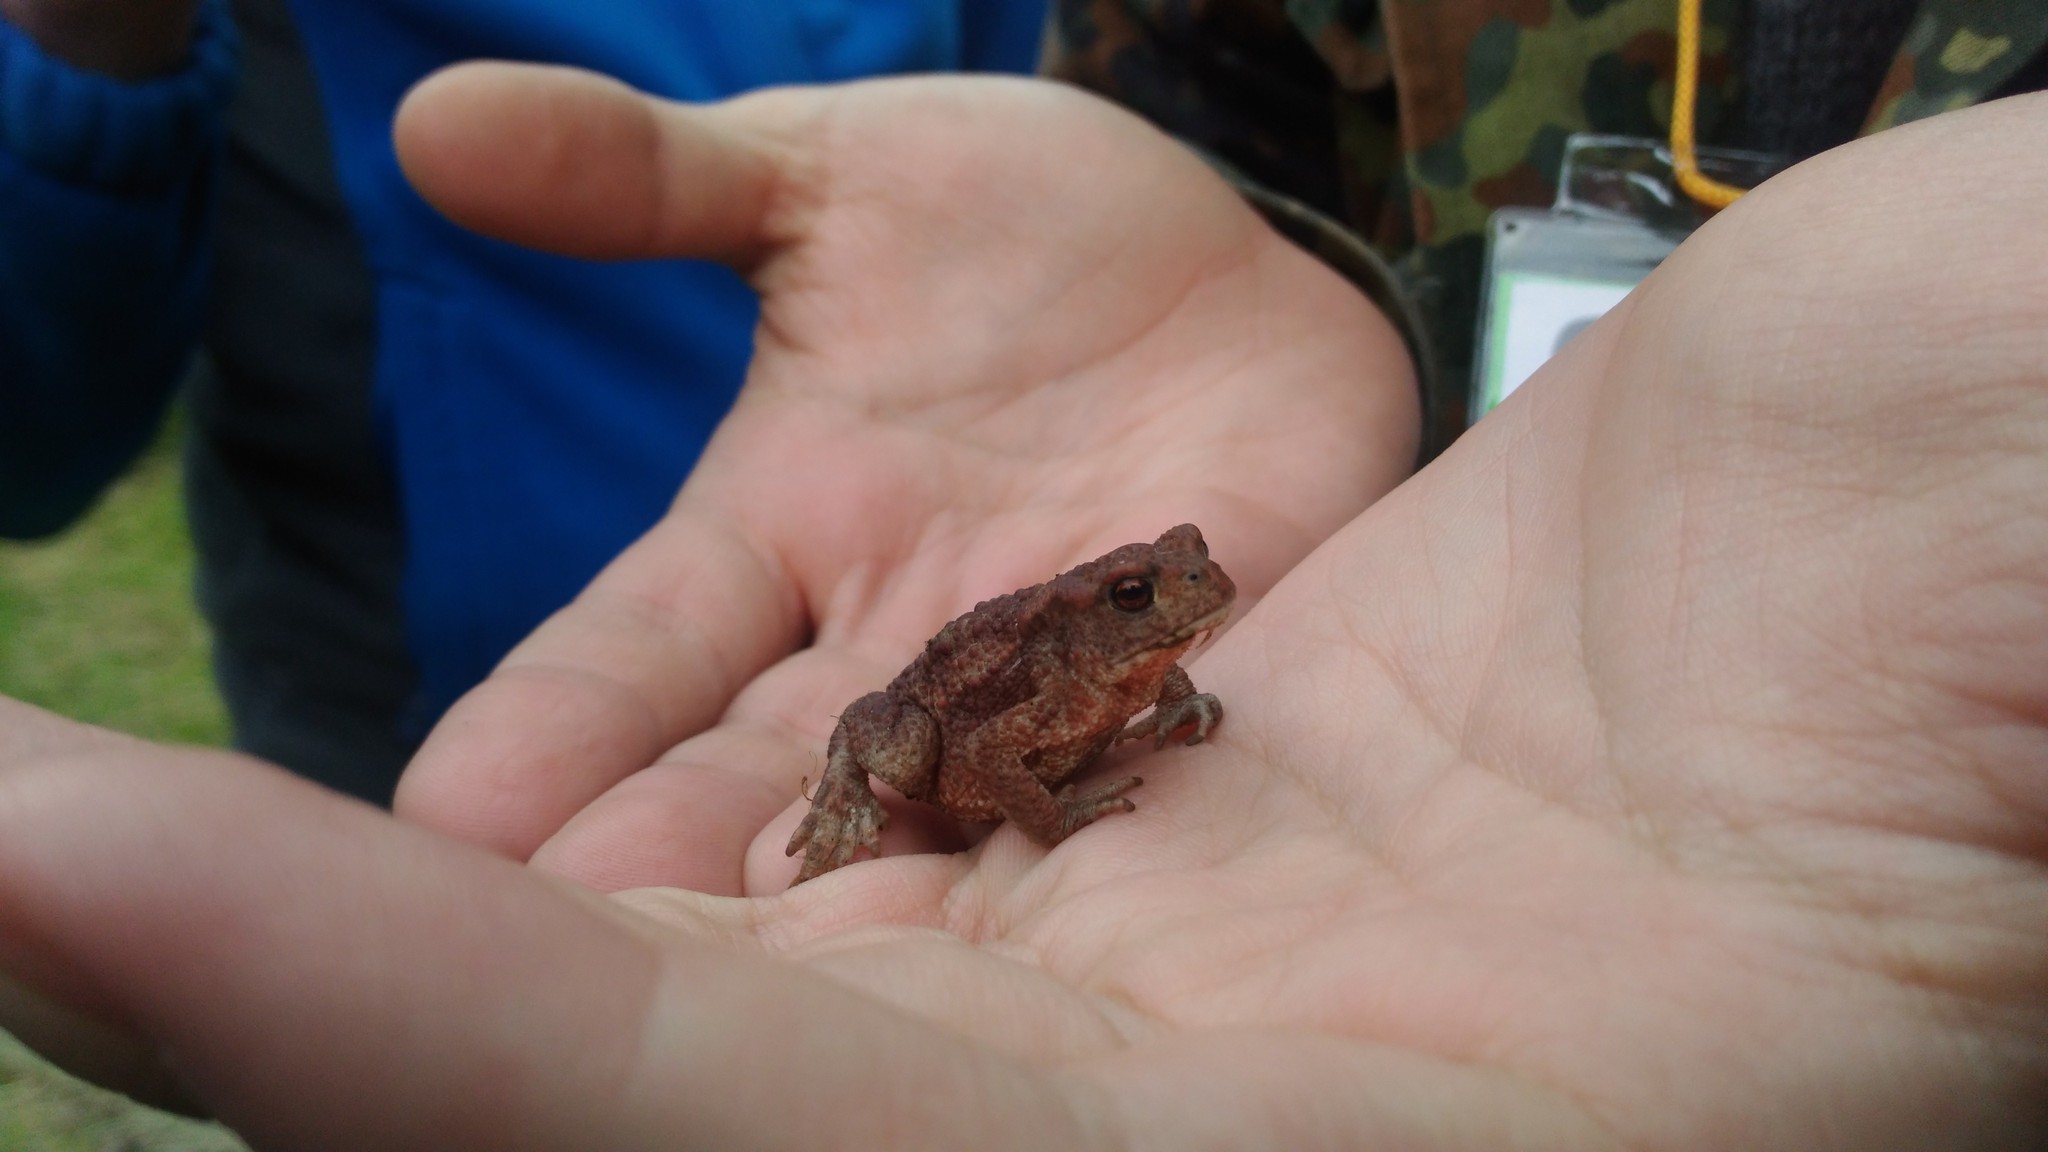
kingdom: Animalia
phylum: Chordata
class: Amphibia
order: Anura
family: Bufonidae
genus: Bufo
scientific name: Bufo bufo
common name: Common toad
